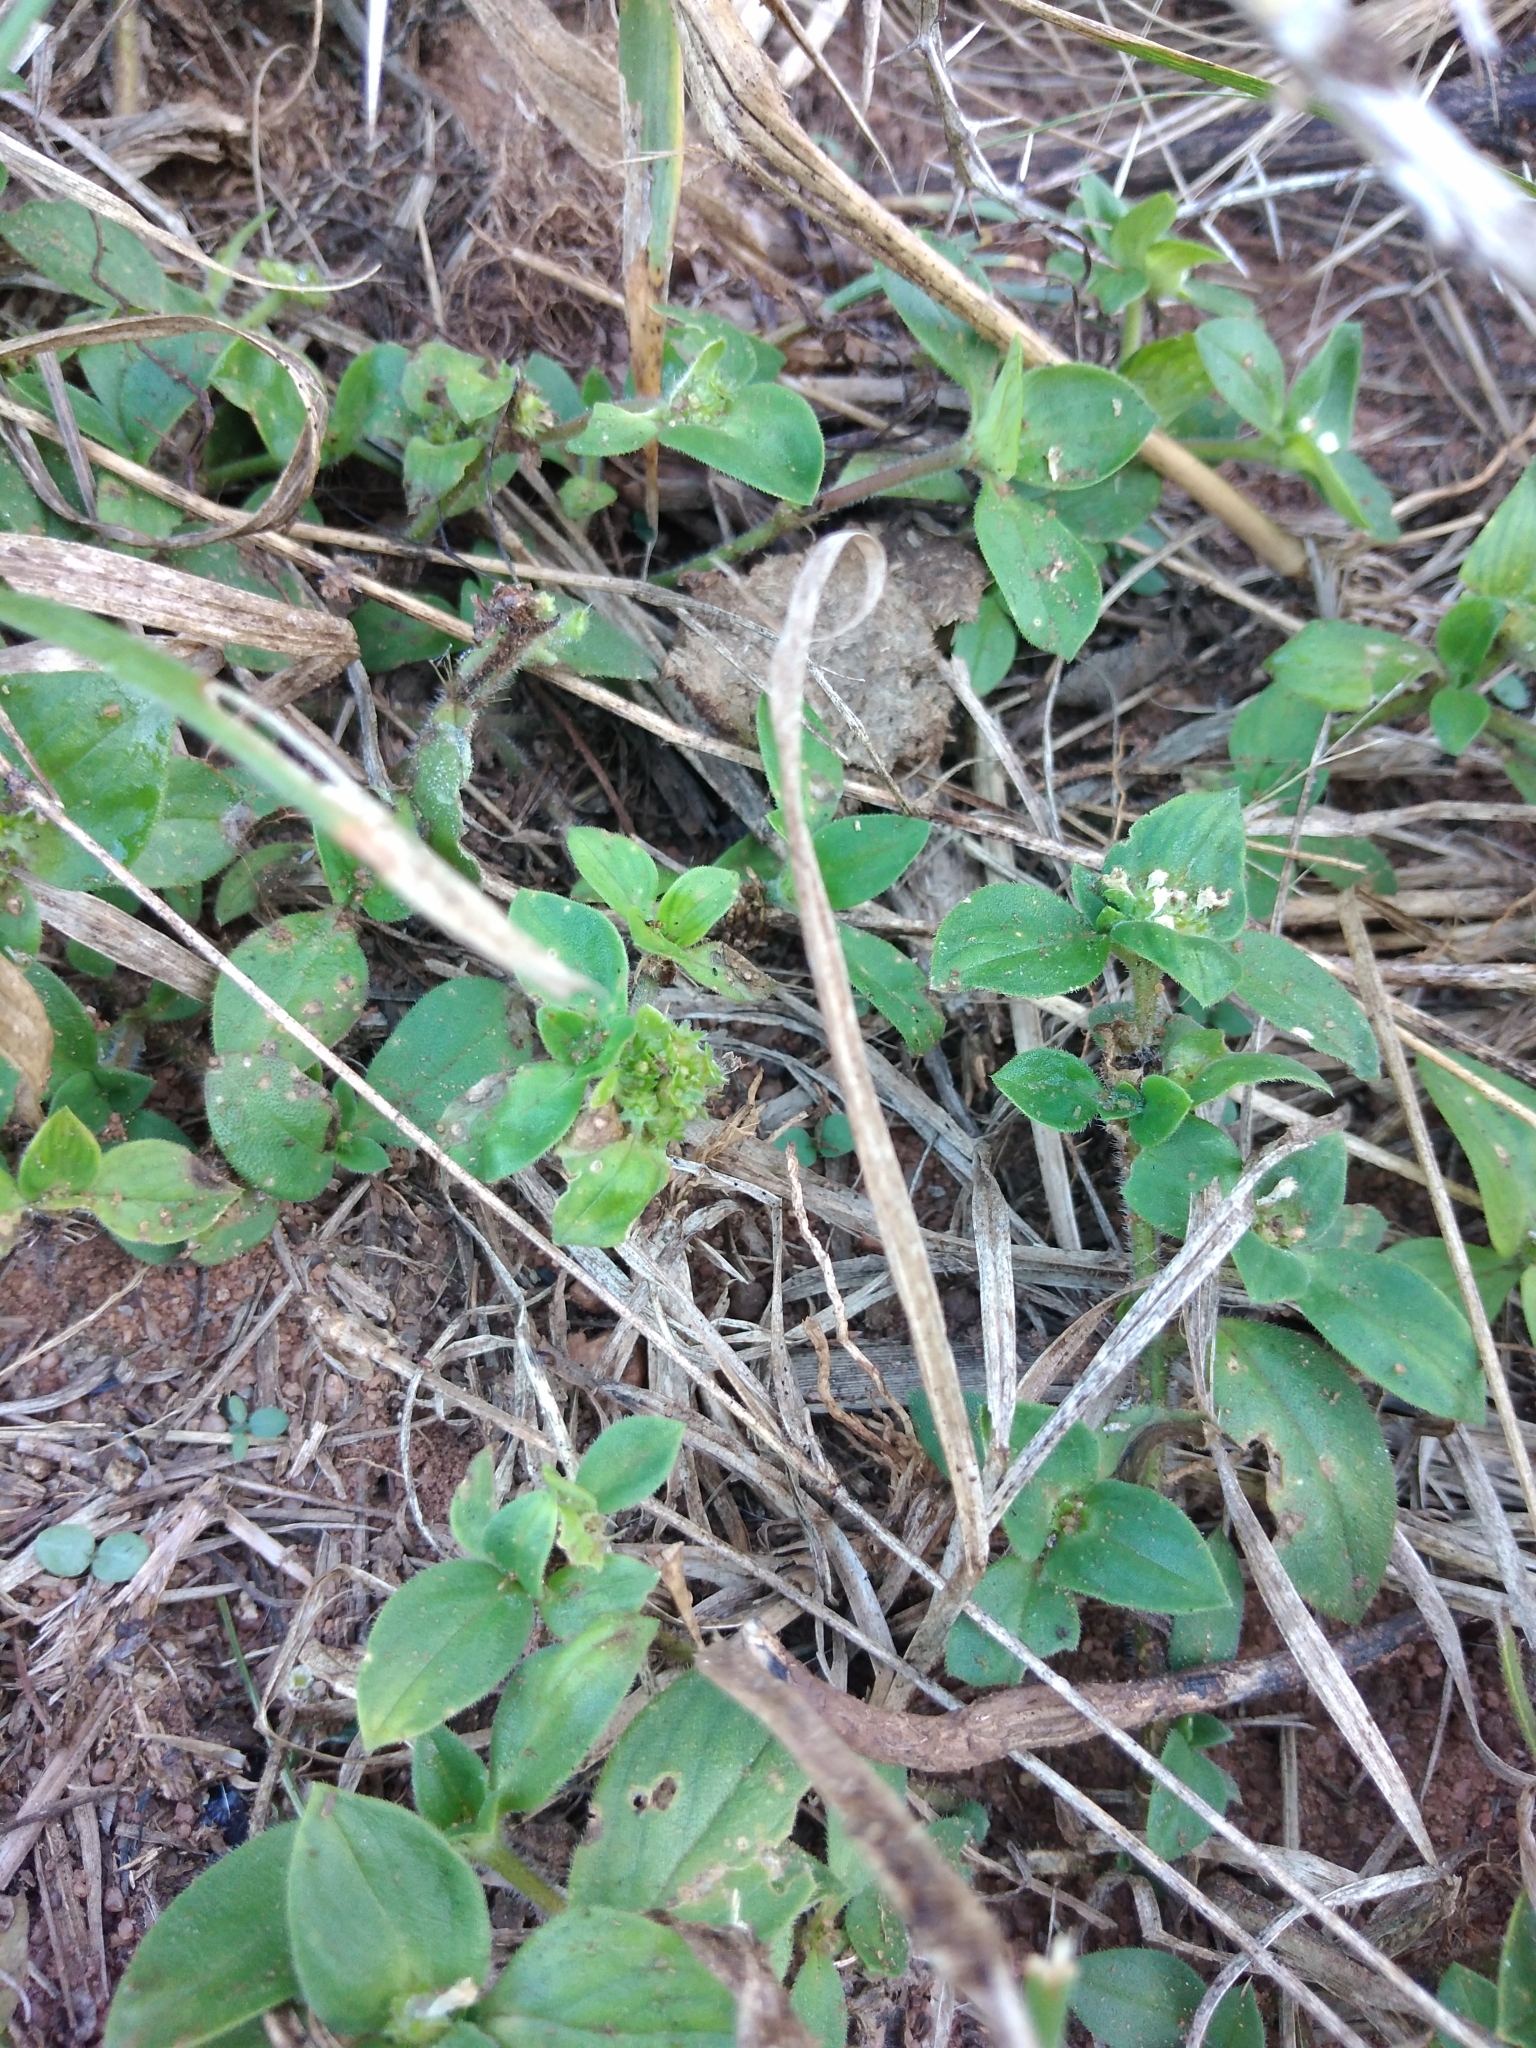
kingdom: Plantae
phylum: Tracheophyta
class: Magnoliopsida
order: Gentianales
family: Rubiaceae
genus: Richardia
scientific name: Richardia brasiliensis
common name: Tropical mexican clover
